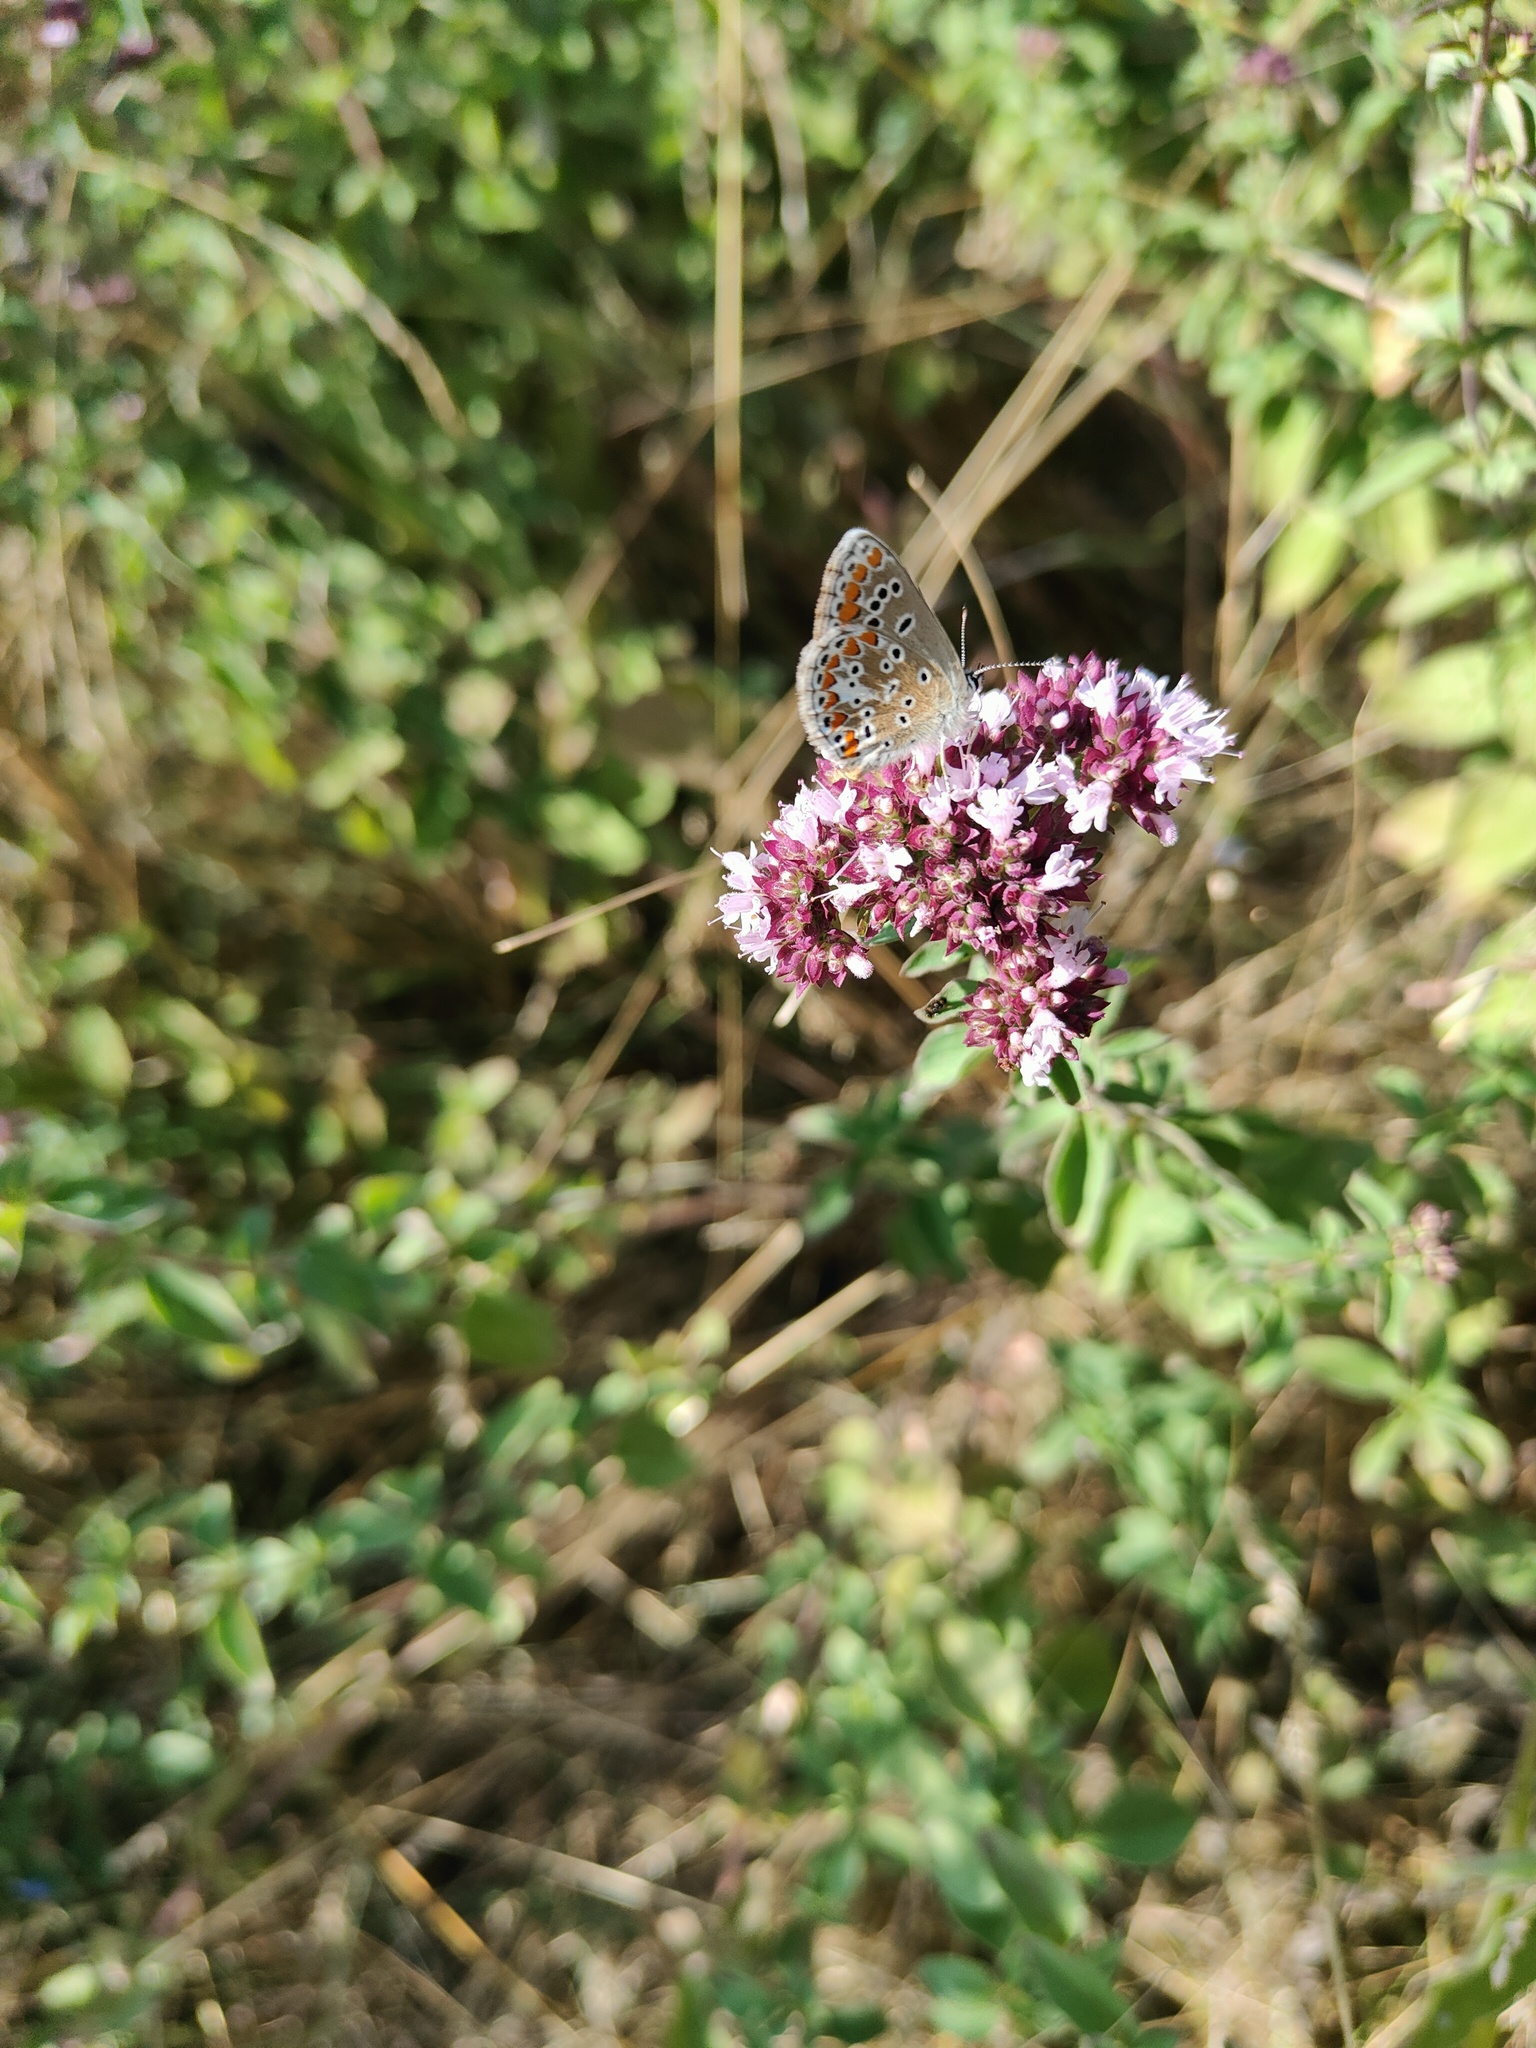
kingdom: Animalia
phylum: Arthropoda
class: Insecta
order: Lepidoptera
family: Lycaenidae
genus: Aricia
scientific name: Aricia agestis
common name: Brown argus
